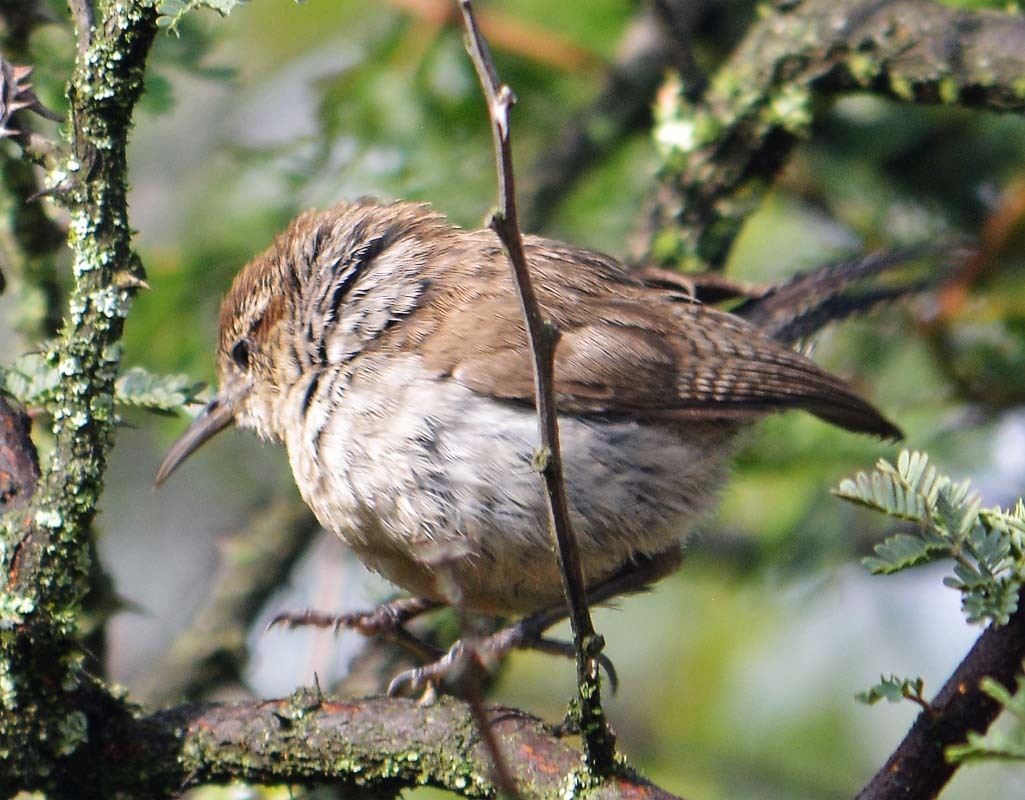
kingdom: Animalia
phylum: Chordata
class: Aves
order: Passeriformes
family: Troglodytidae
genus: Thryomanes
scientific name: Thryomanes bewickii
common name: Bewick's wren
